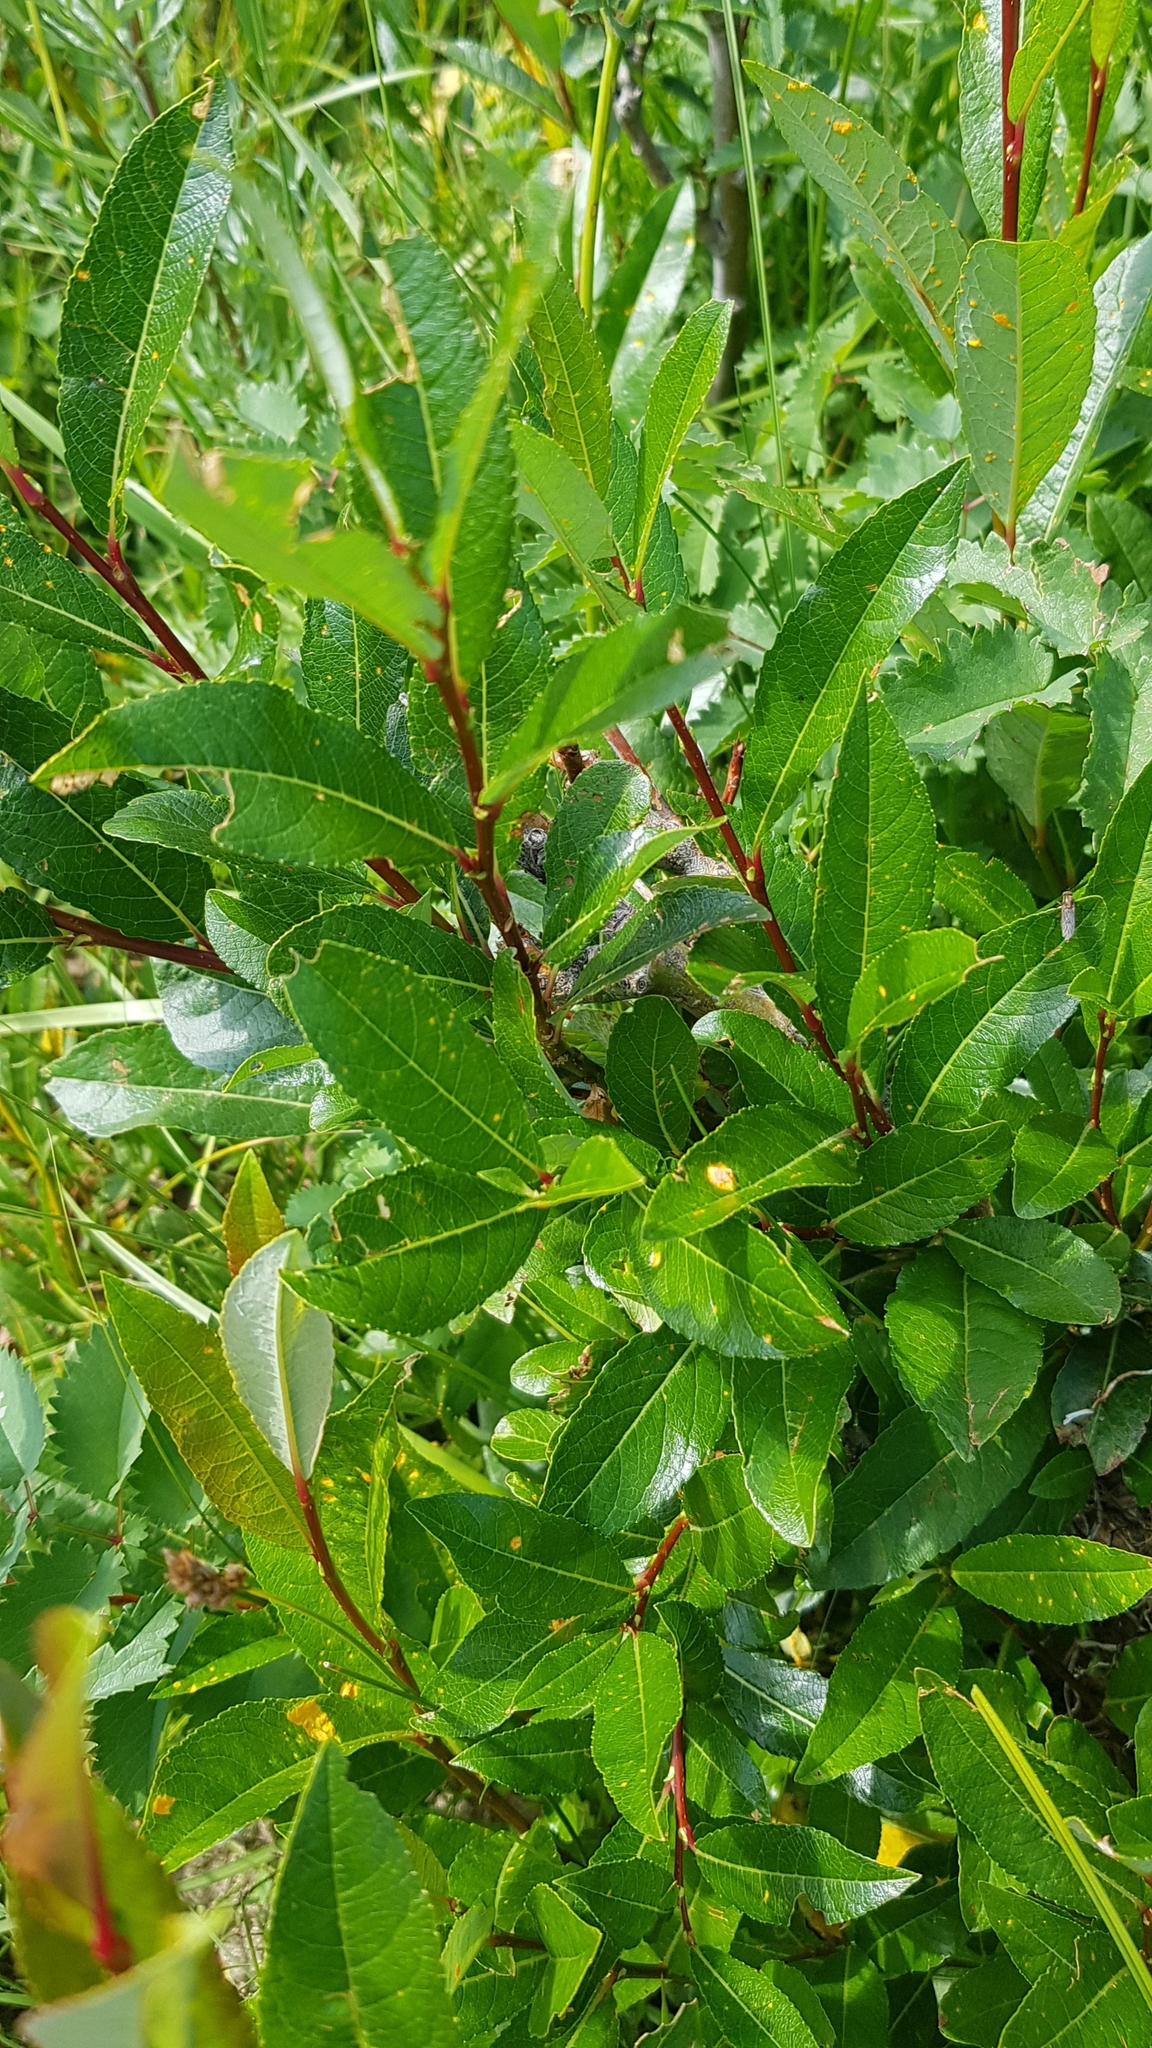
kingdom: Plantae
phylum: Tracheophyta
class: Magnoliopsida
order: Malpighiales
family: Salicaceae
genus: Salix
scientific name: Salix divaricata
